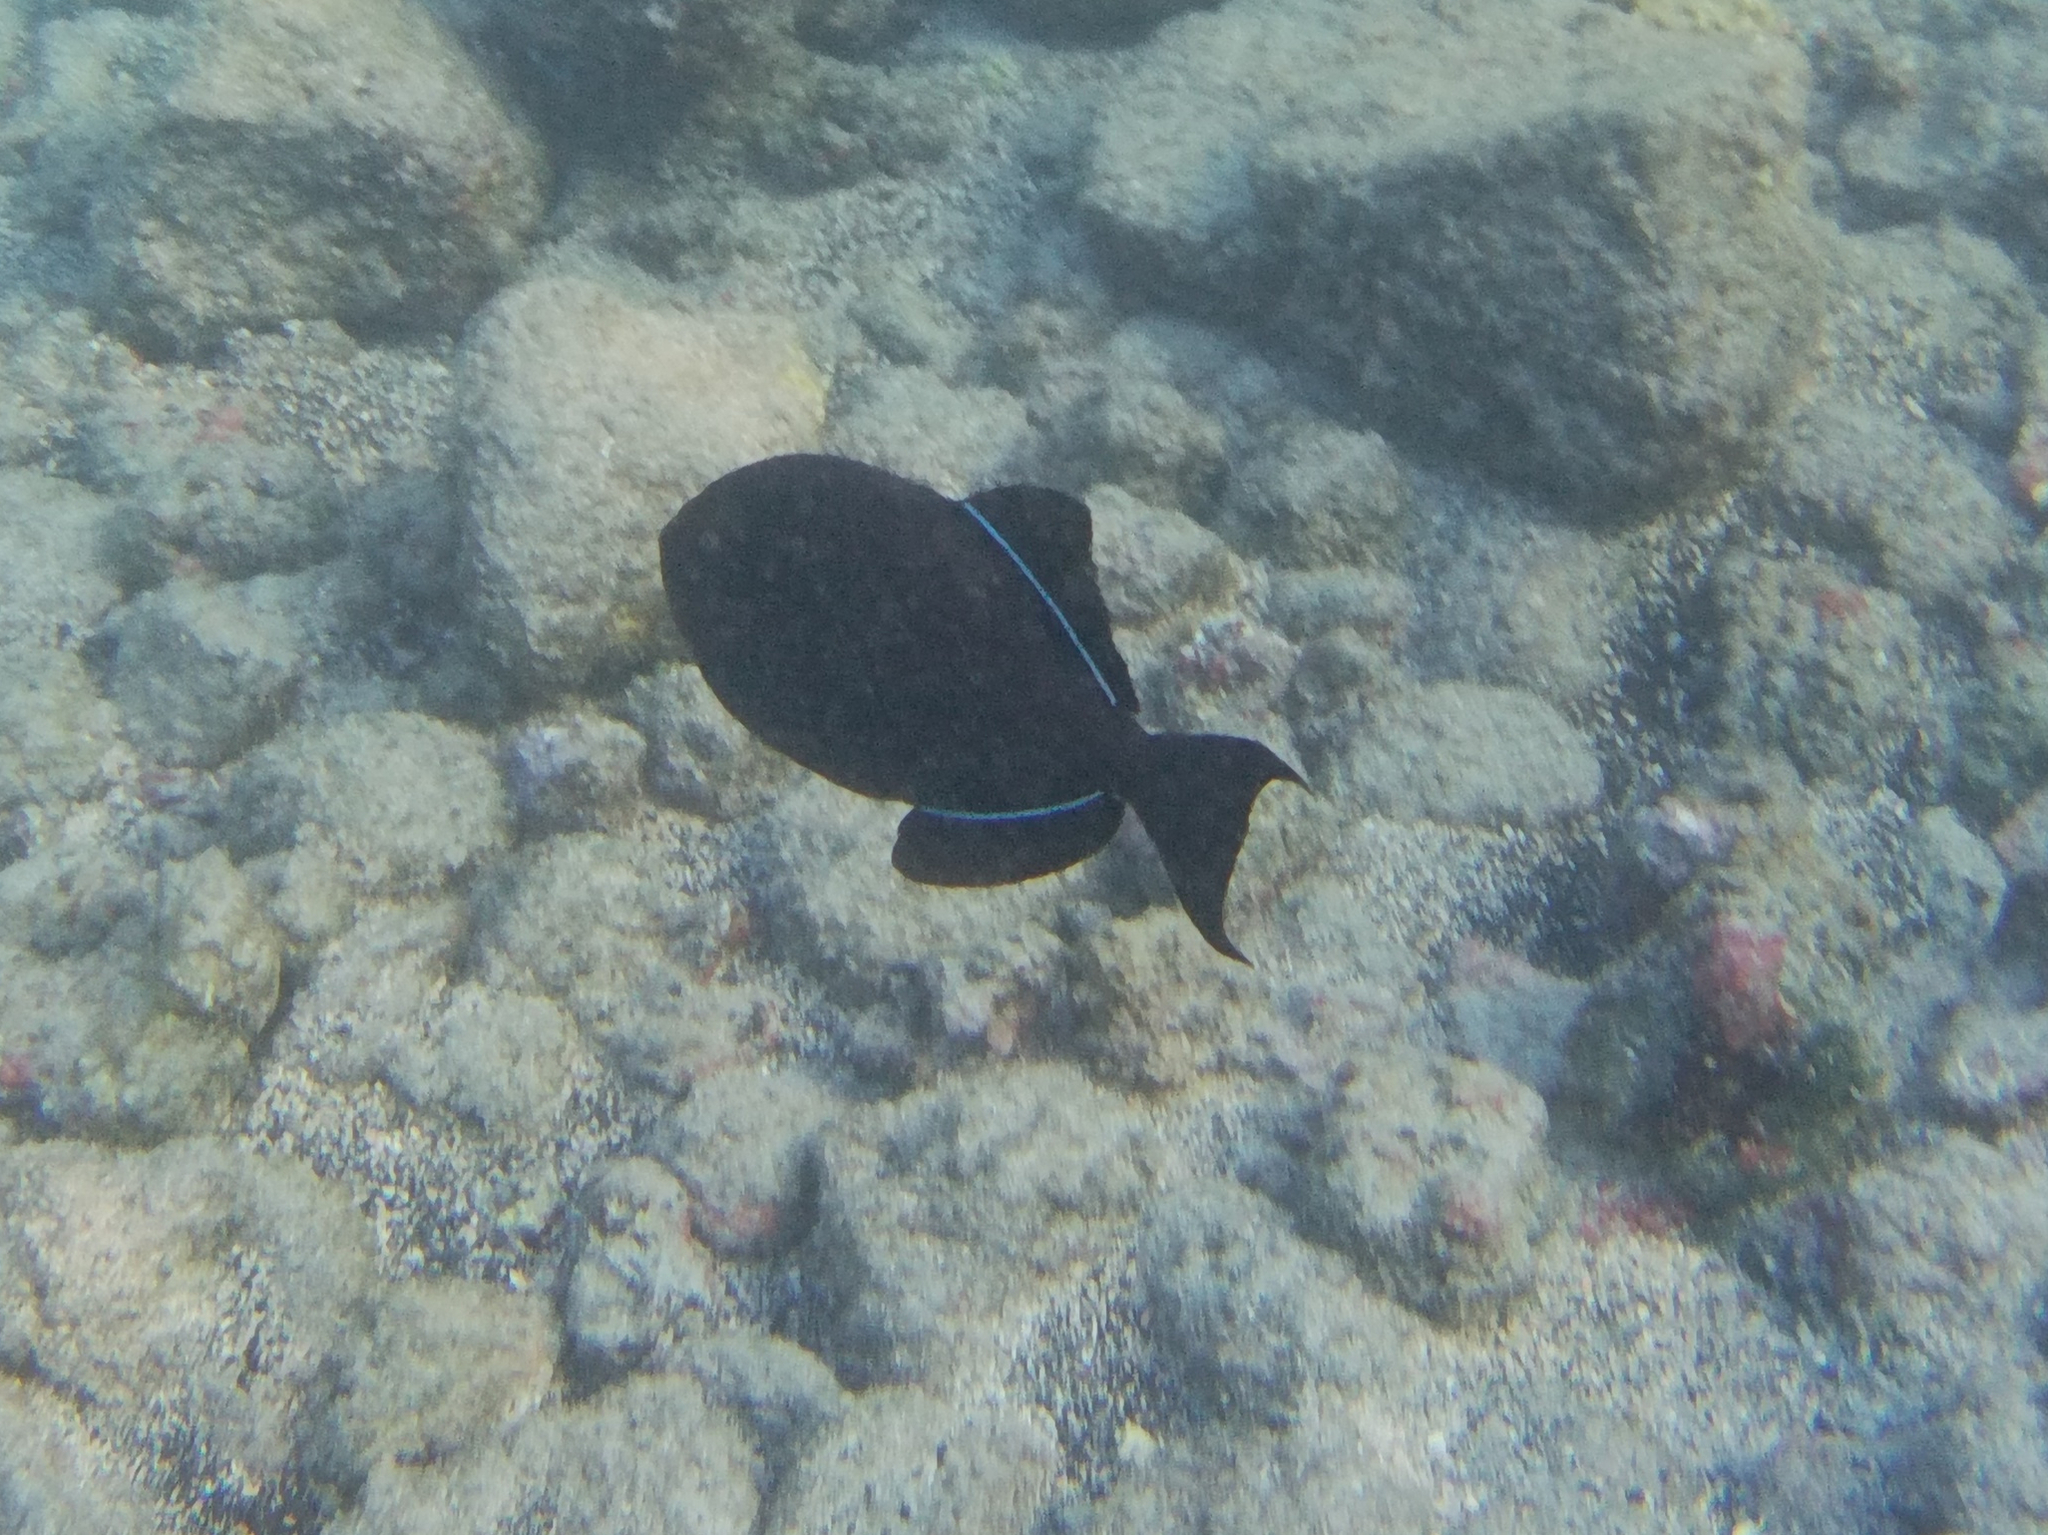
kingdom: Animalia
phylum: Chordata
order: Tetraodontiformes
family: Balistidae
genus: Melichthys
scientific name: Melichthys niger
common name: Black durgon
